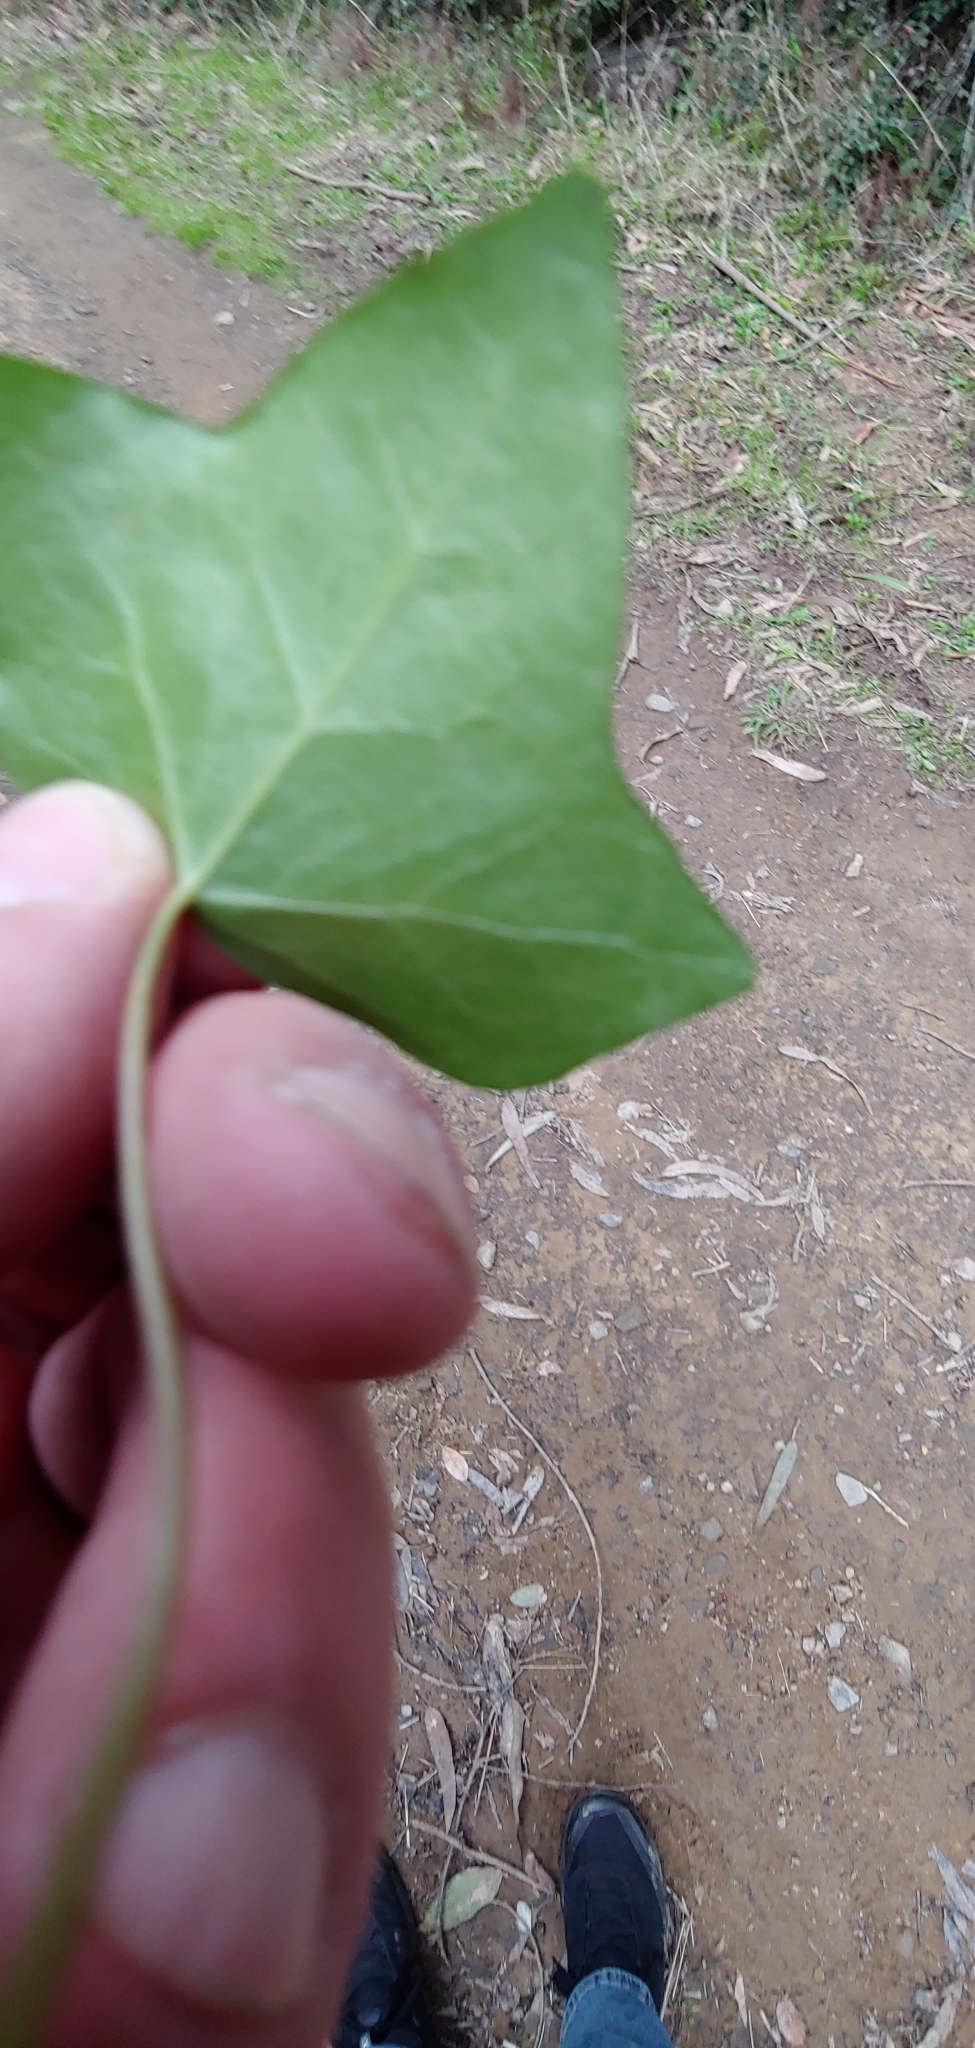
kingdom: Plantae
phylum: Tracheophyta
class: Magnoliopsida
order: Apiales
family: Araliaceae
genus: Hedera
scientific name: Hedera helix
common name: Ivy
